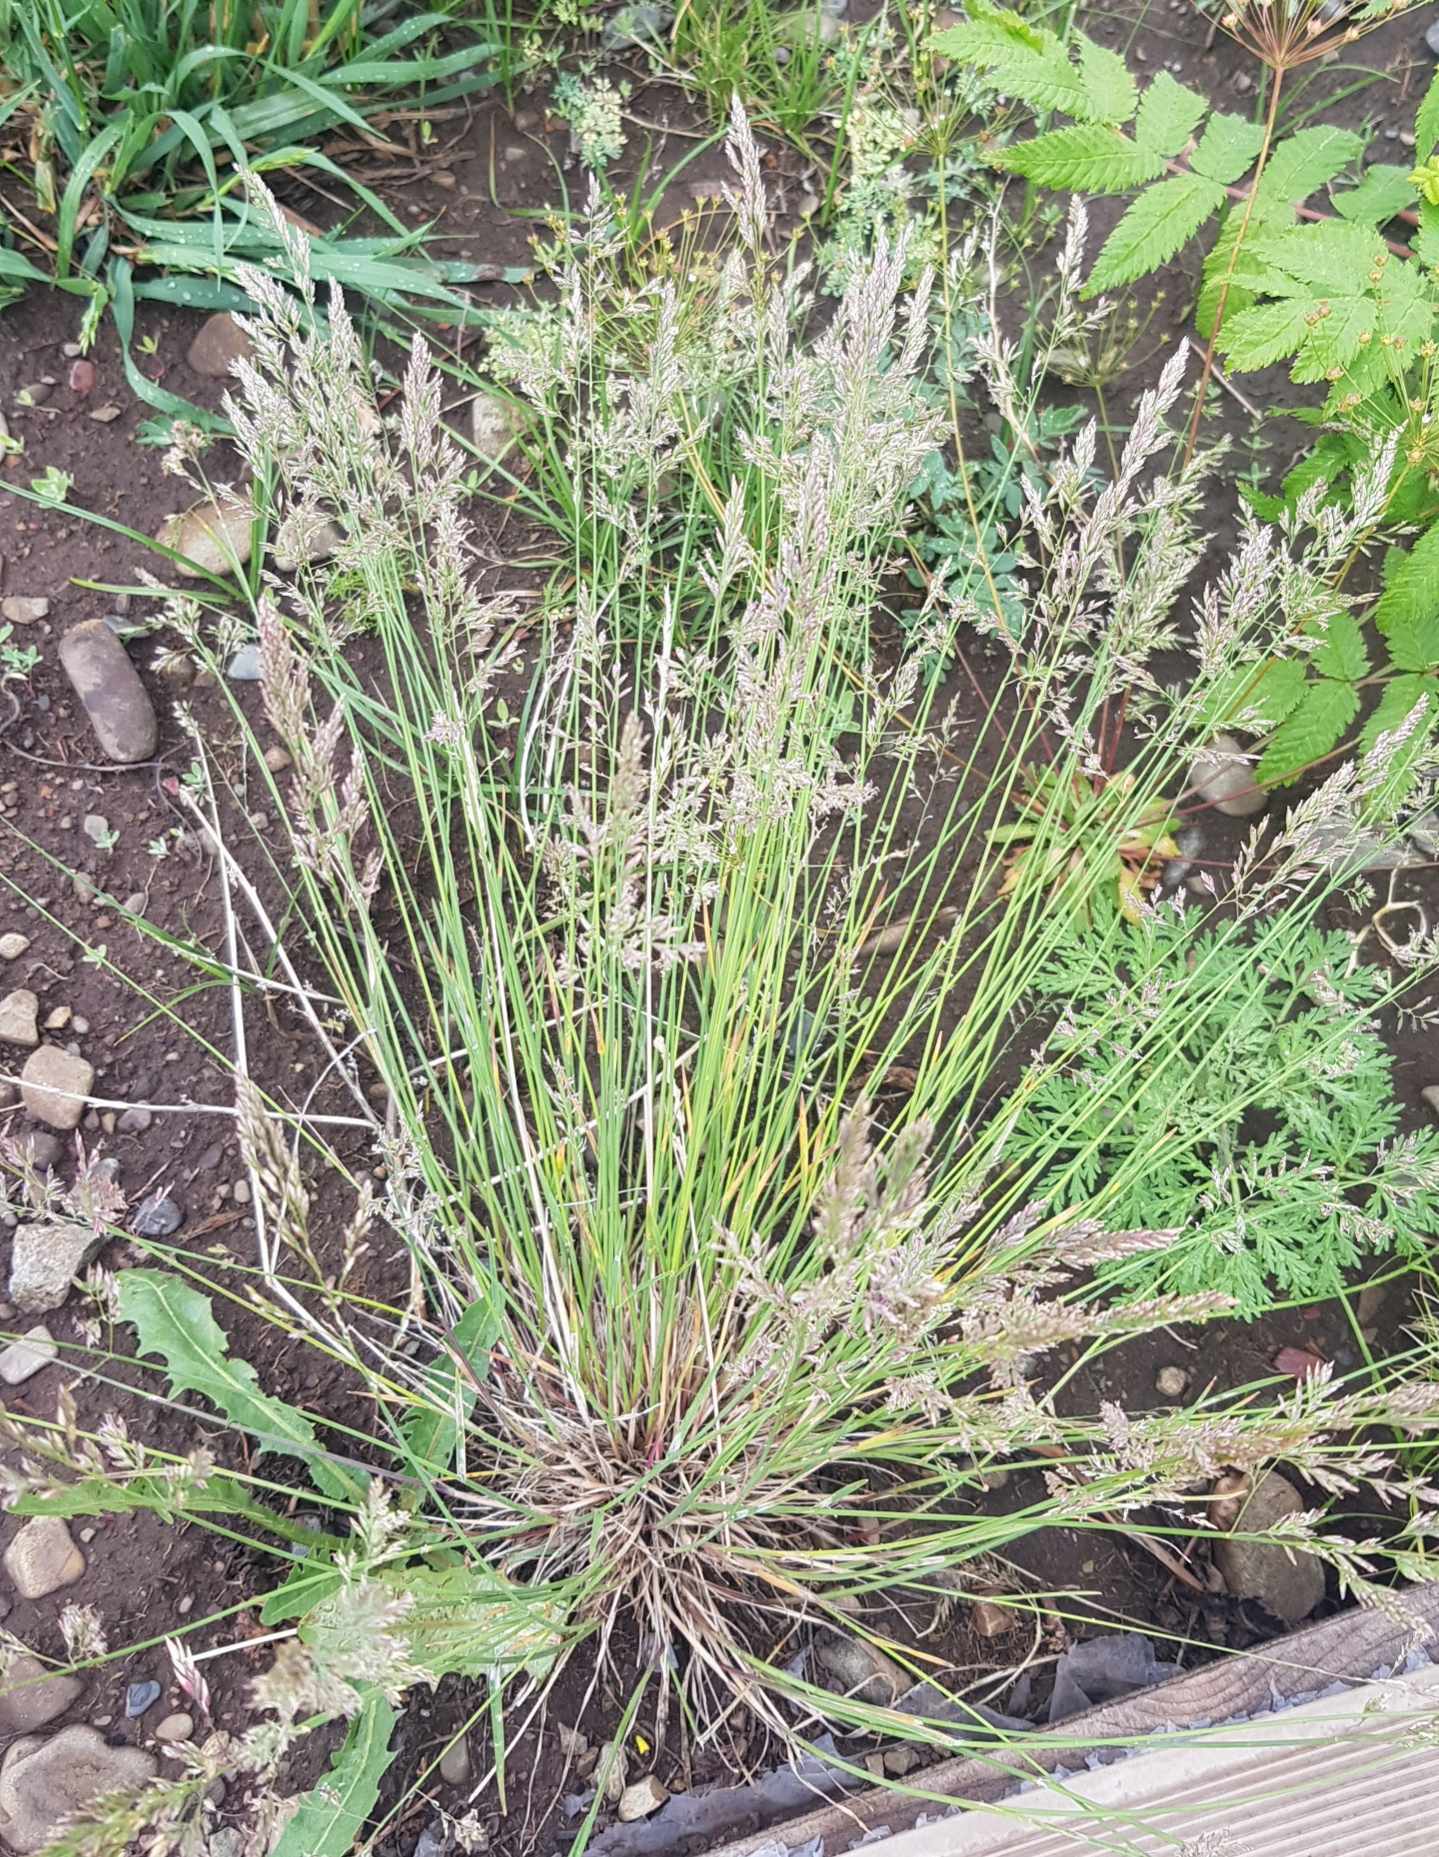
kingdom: Plantae
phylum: Tracheophyta
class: Liliopsida
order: Poales
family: Poaceae
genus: Poa
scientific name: Poa attenuata
